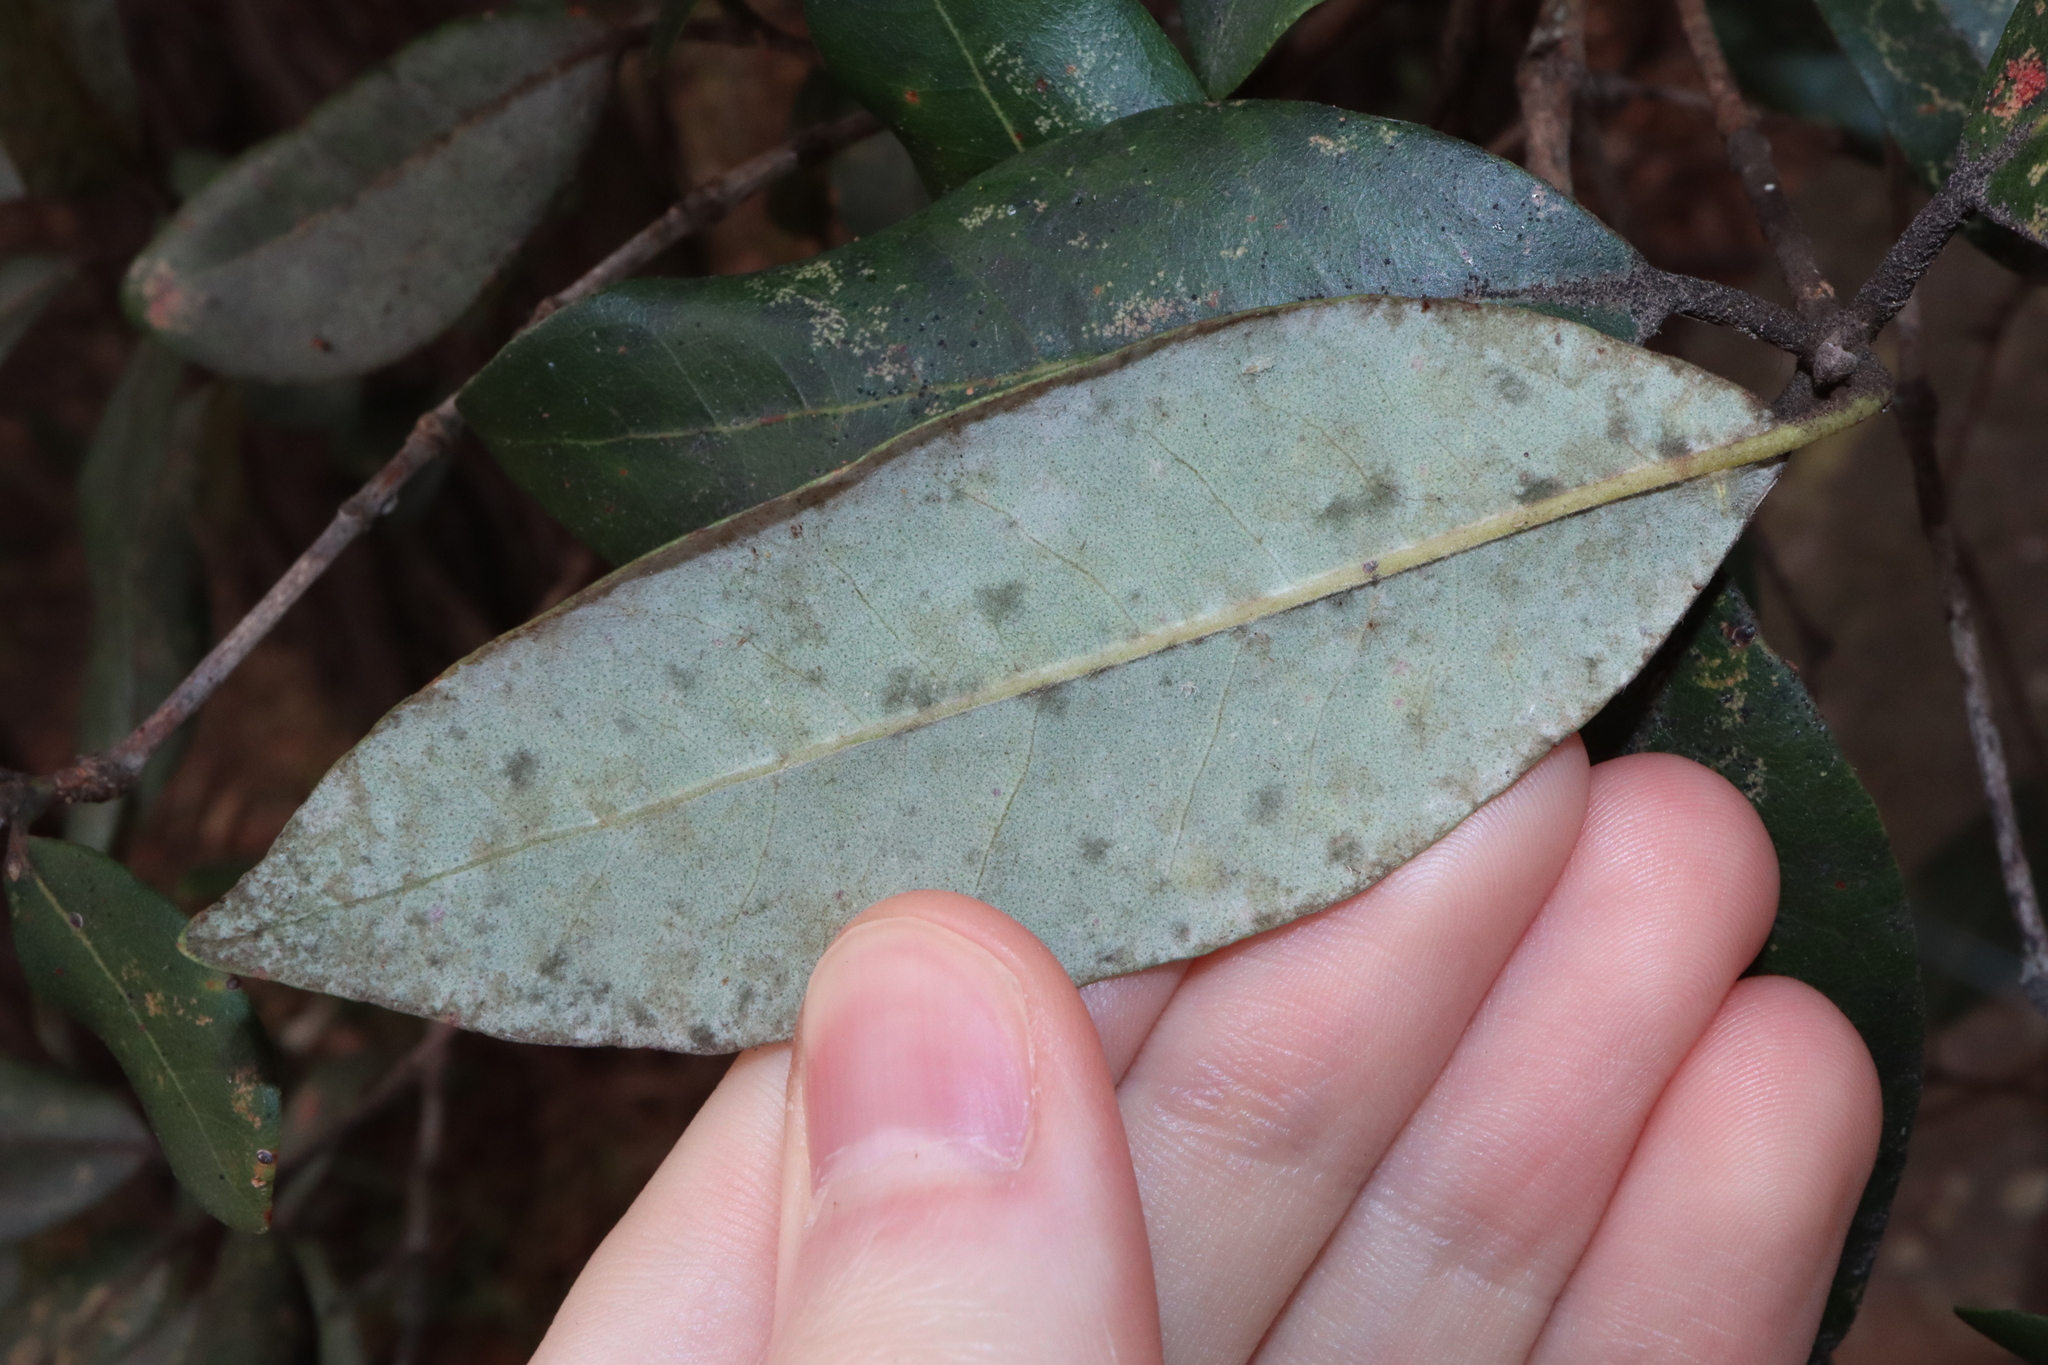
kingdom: Plantae
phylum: Tracheophyta
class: Magnoliopsida
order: Myrtales
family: Myrtaceae
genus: Syncarpia
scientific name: Syncarpia glomulifera
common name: Turpentine tree
